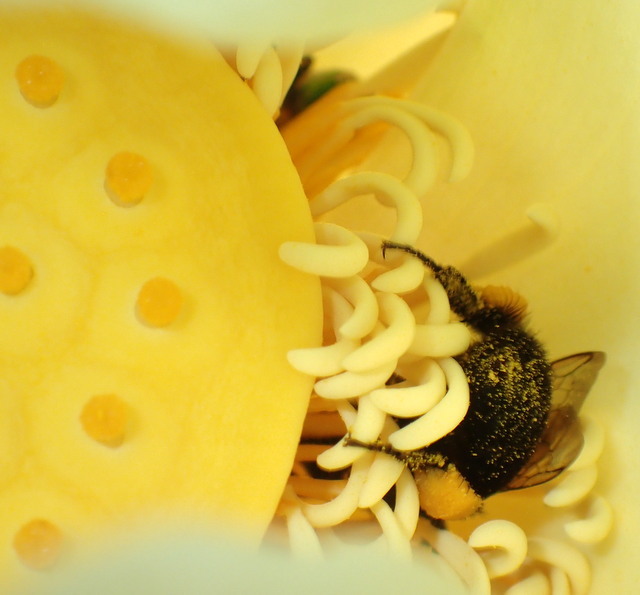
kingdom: Animalia
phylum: Arthropoda
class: Insecta
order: Hymenoptera
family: Apidae
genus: Bombus
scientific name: Bombus impatiens
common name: Common eastern bumble bee
